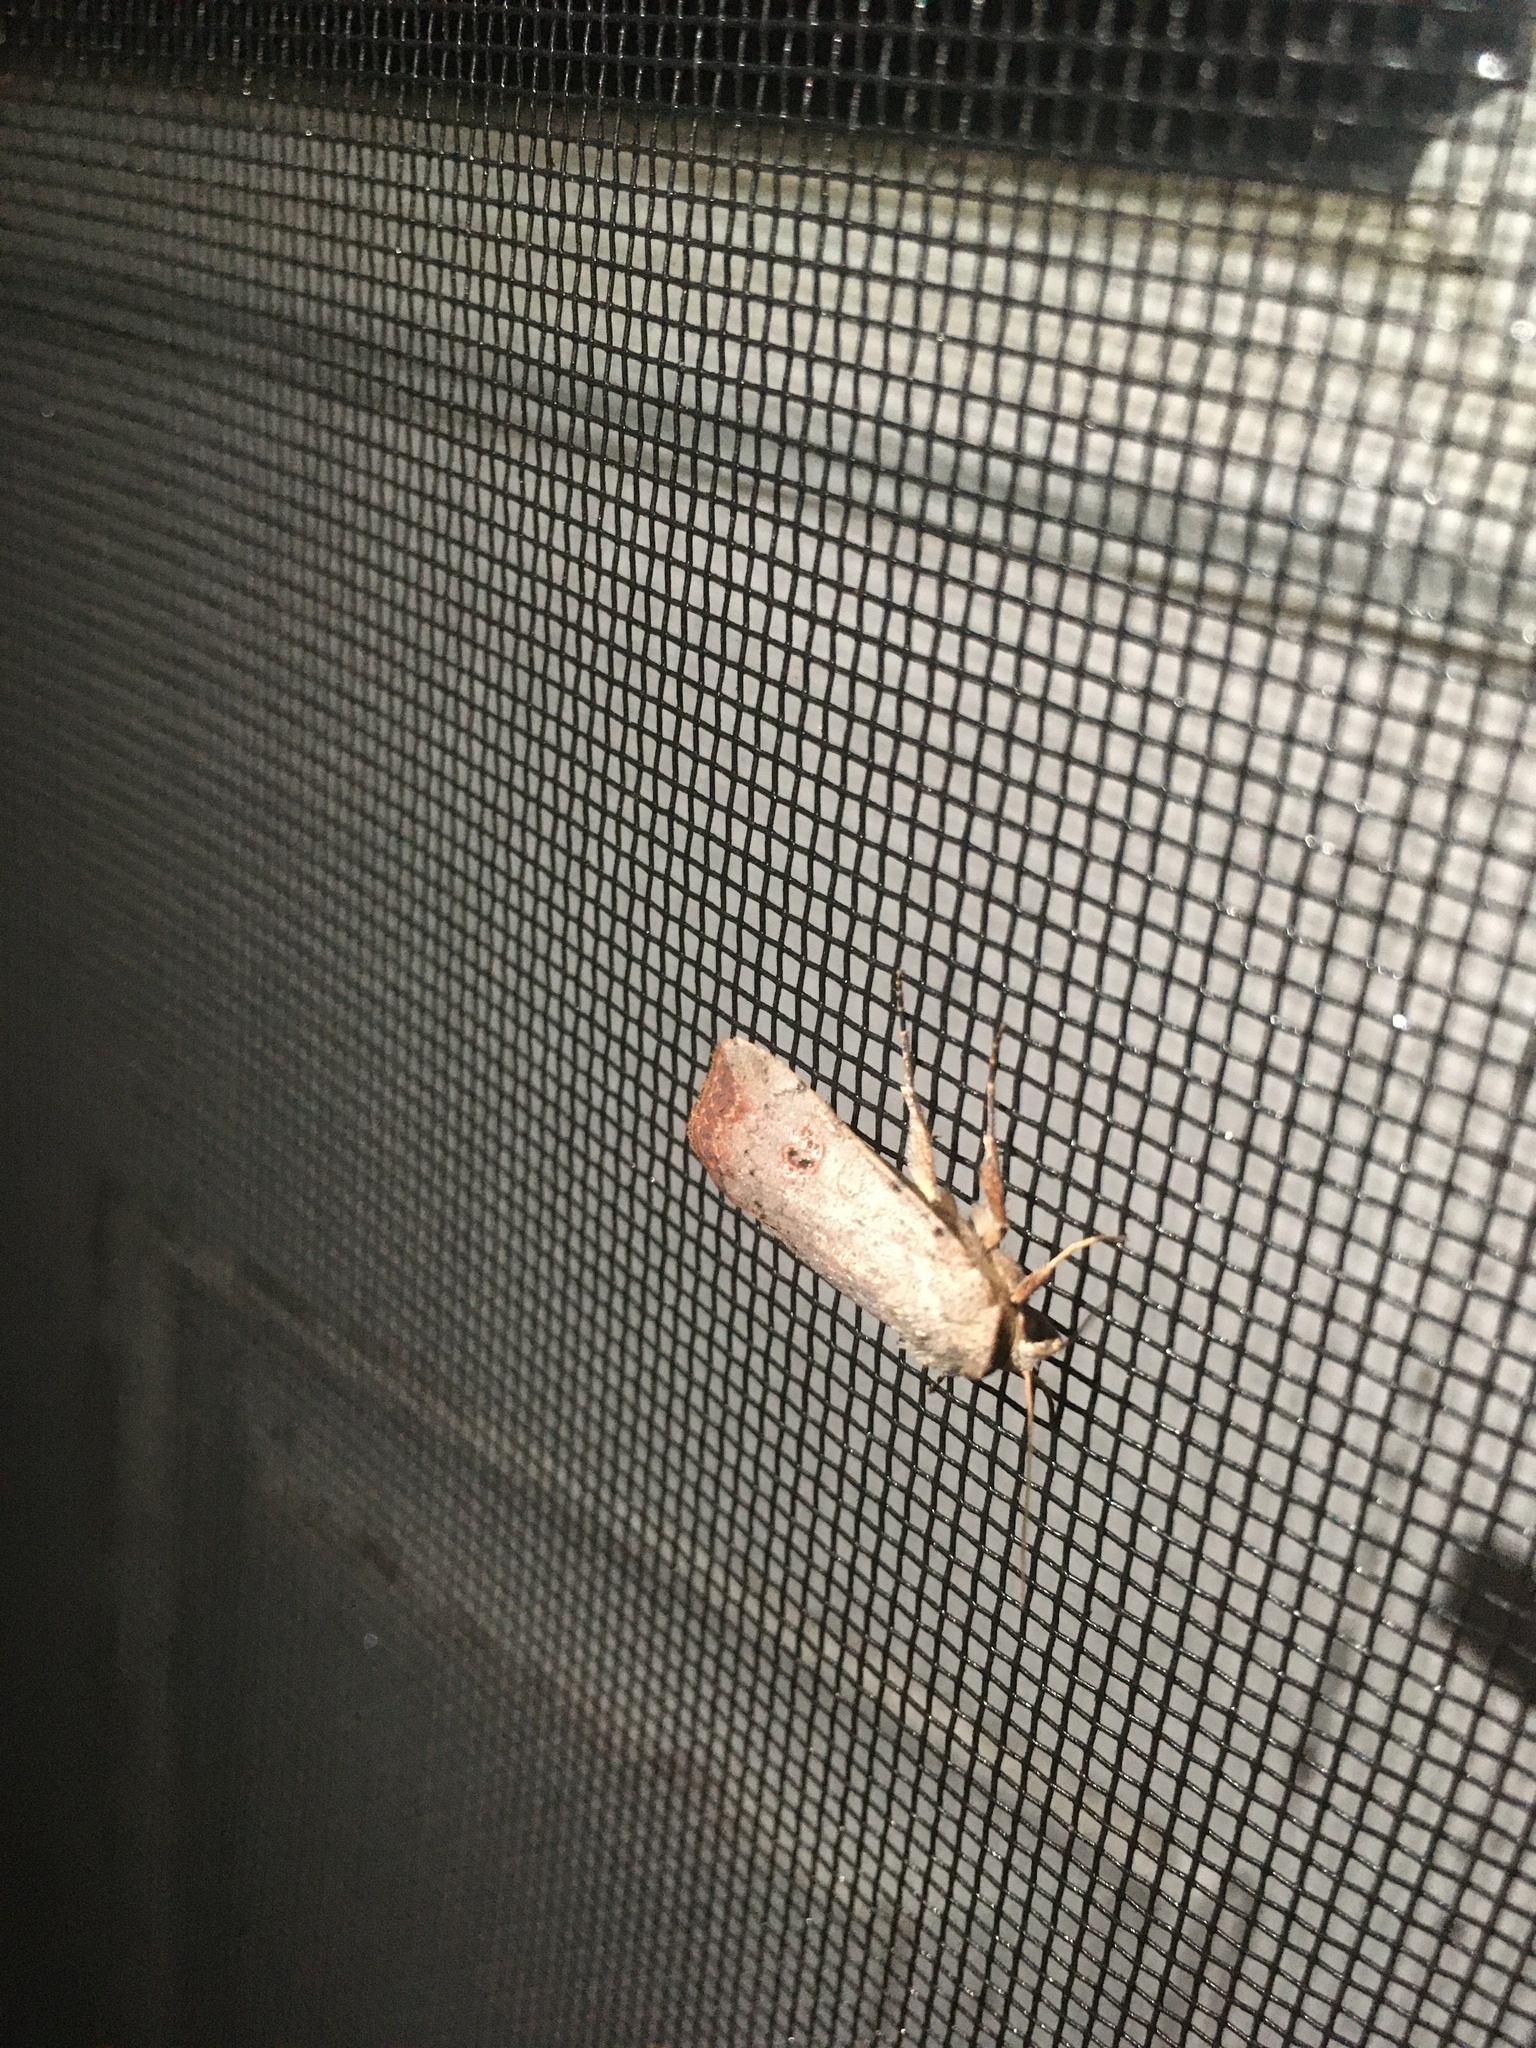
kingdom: Animalia
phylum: Arthropoda
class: Insecta
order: Lepidoptera
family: Noctuidae
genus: Anicla
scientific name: Anicla infecta
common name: Green cutworm
